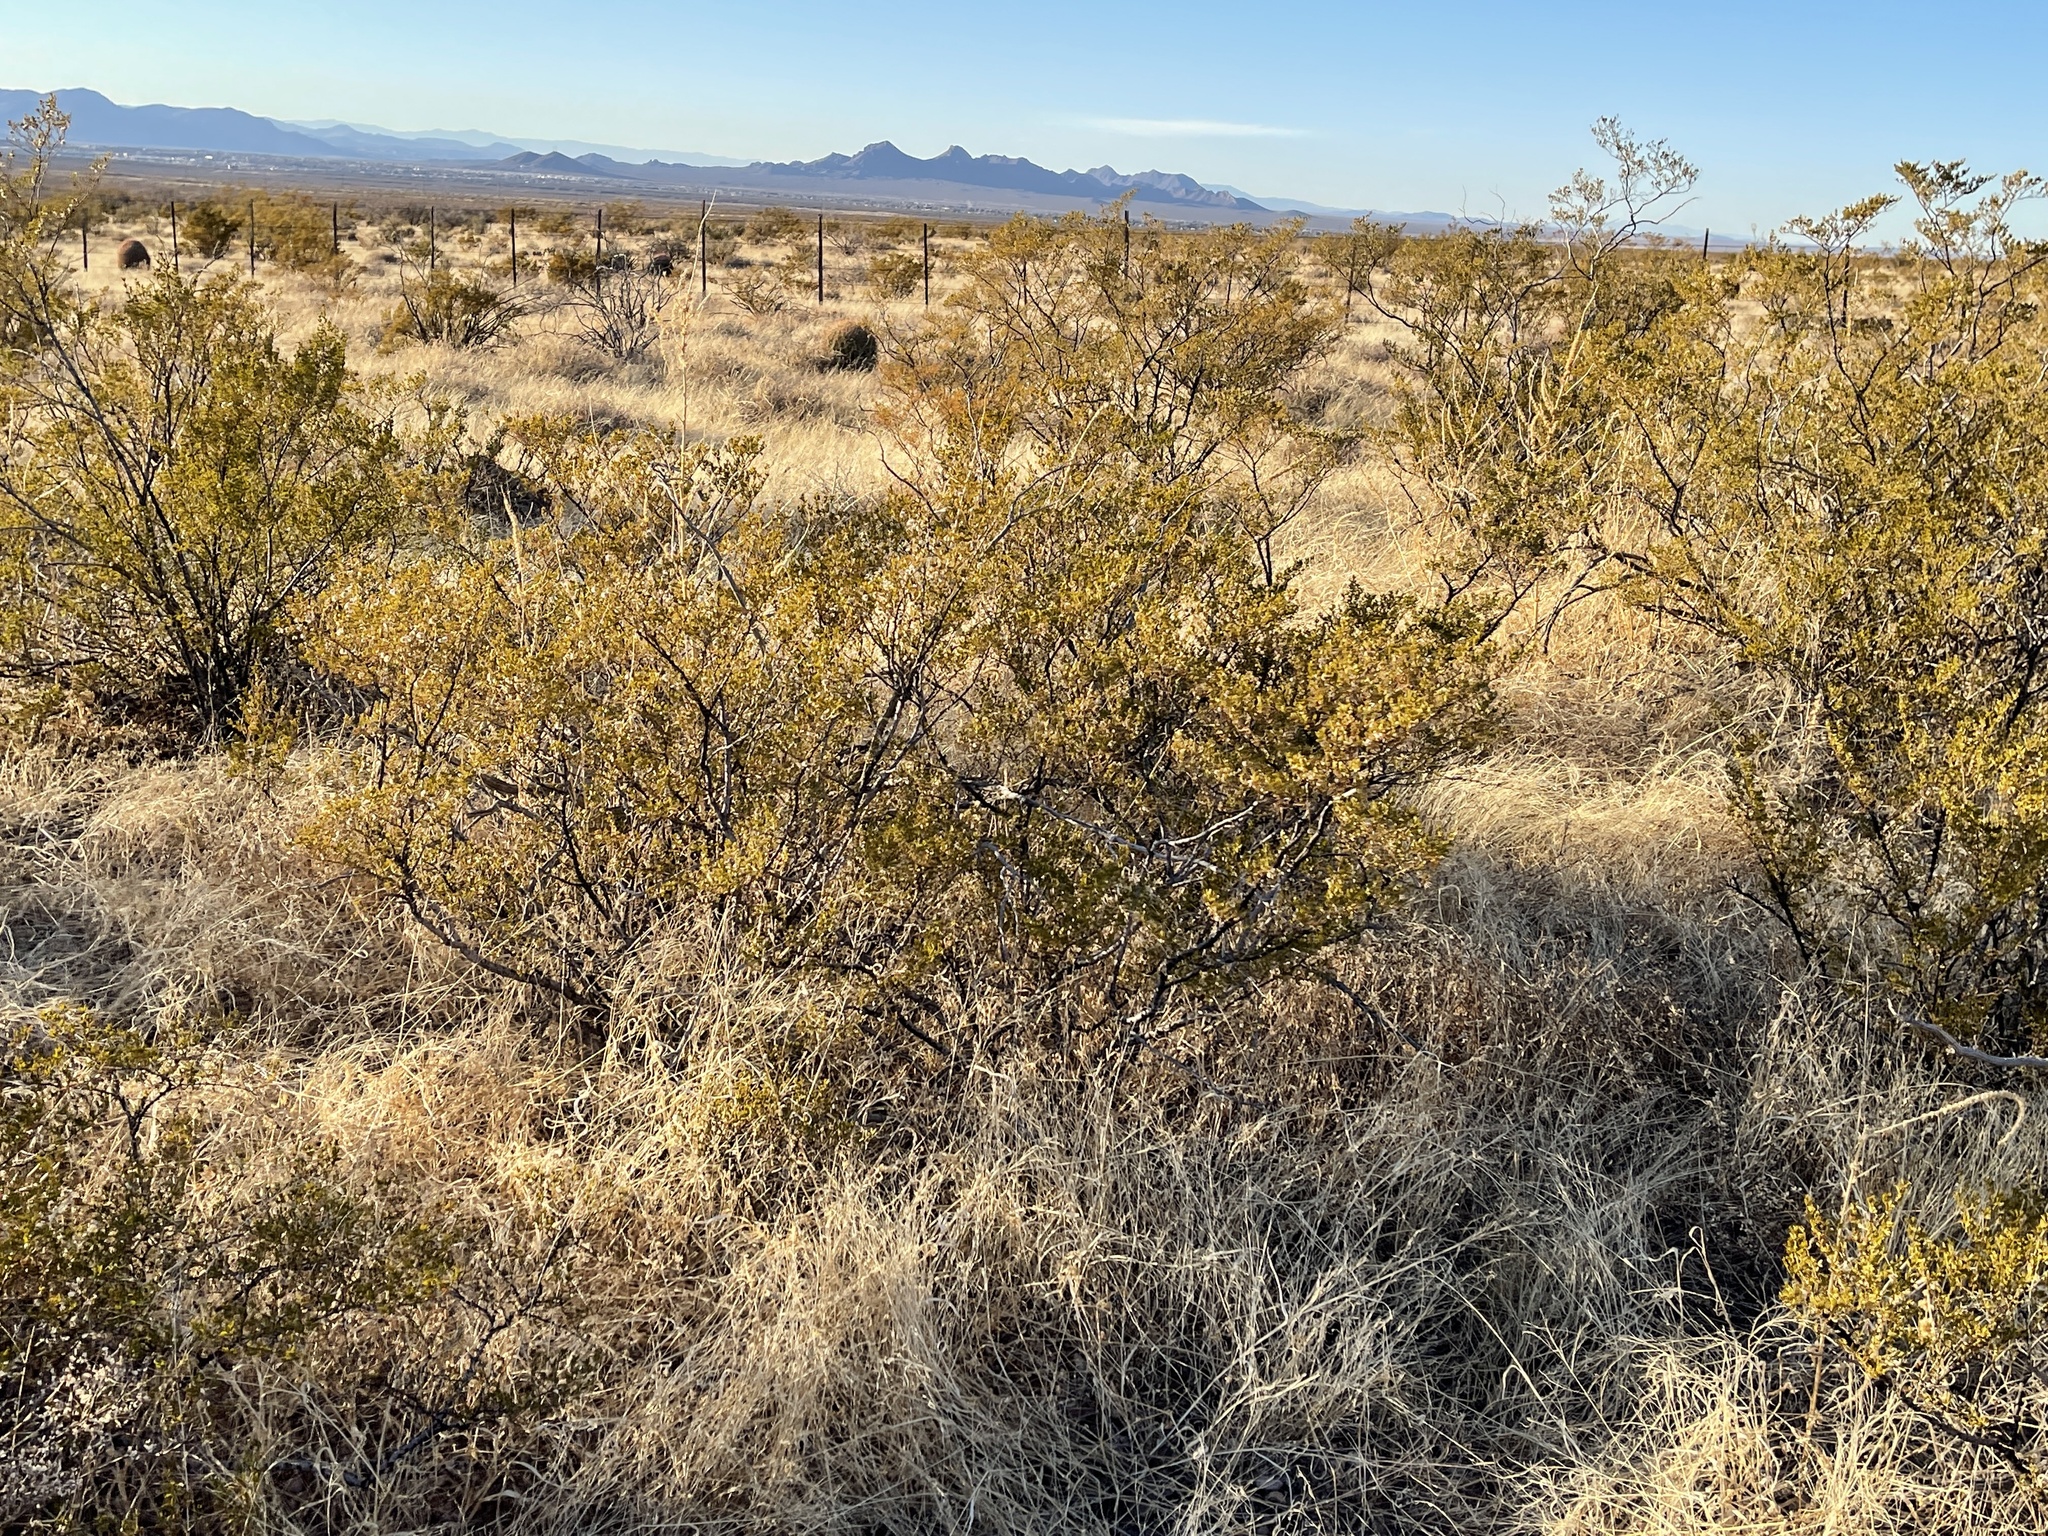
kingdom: Plantae
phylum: Tracheophyta
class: Magnoliopsida
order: Zygophyllales
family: Zygophyllaceae
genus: Larrea
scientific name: Larrea tridentata
